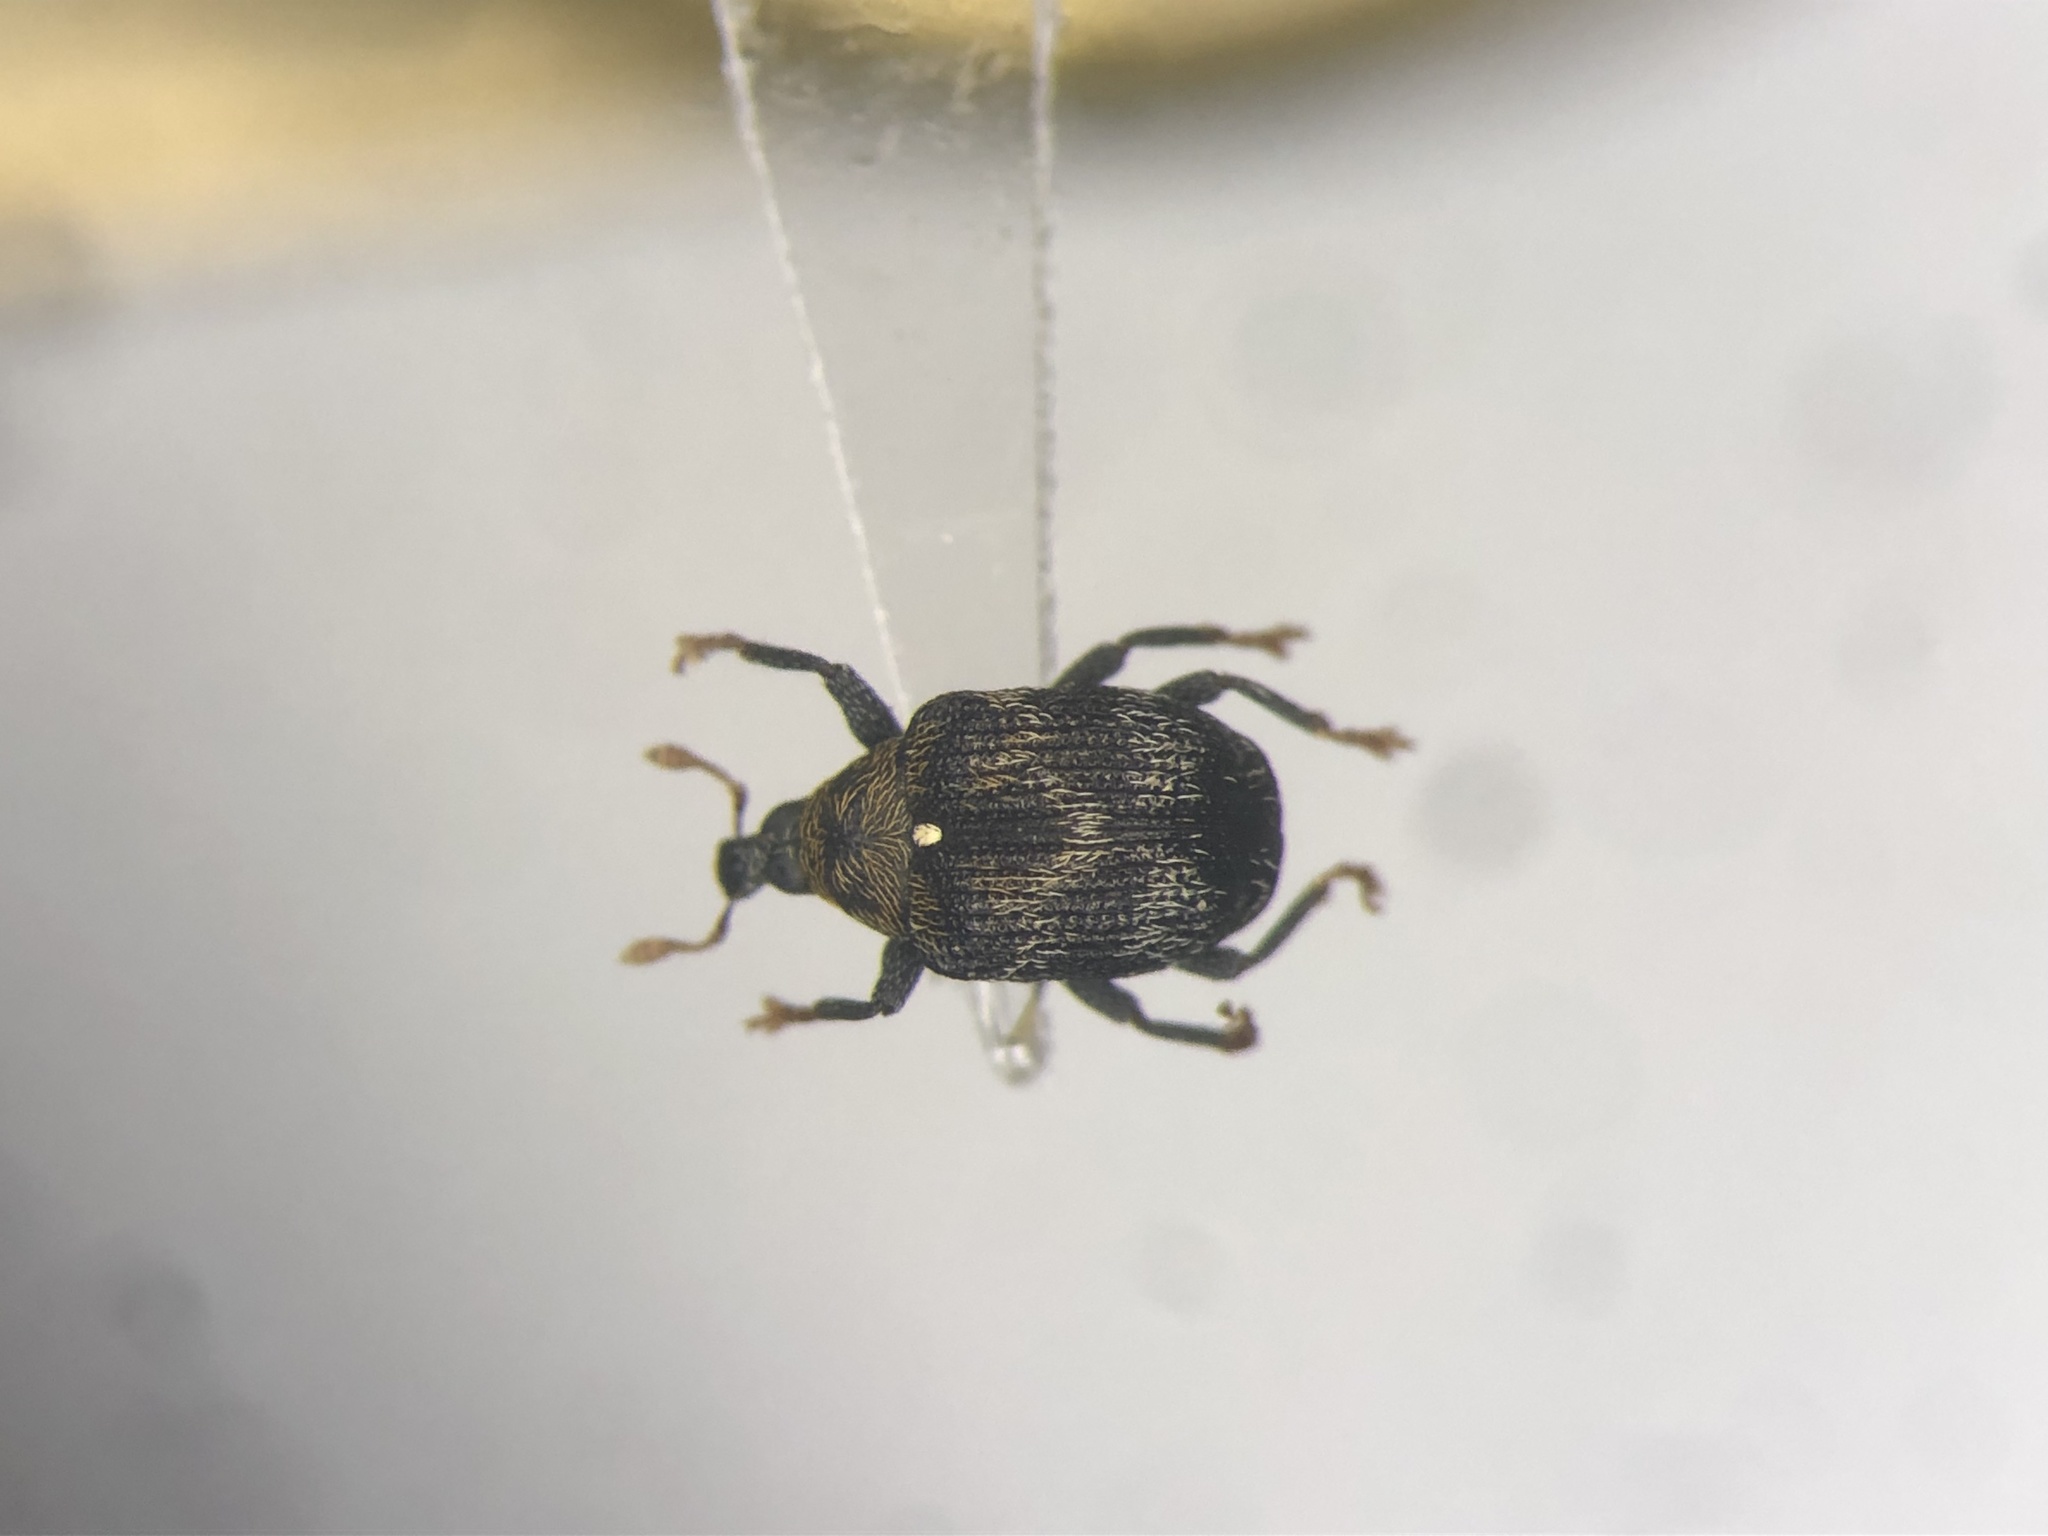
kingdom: Animalia
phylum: Arthropoda
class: Insecta
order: Coleoptera
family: Curculionidae
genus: Piazorhinus
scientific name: Piazorhinus scutellaris
